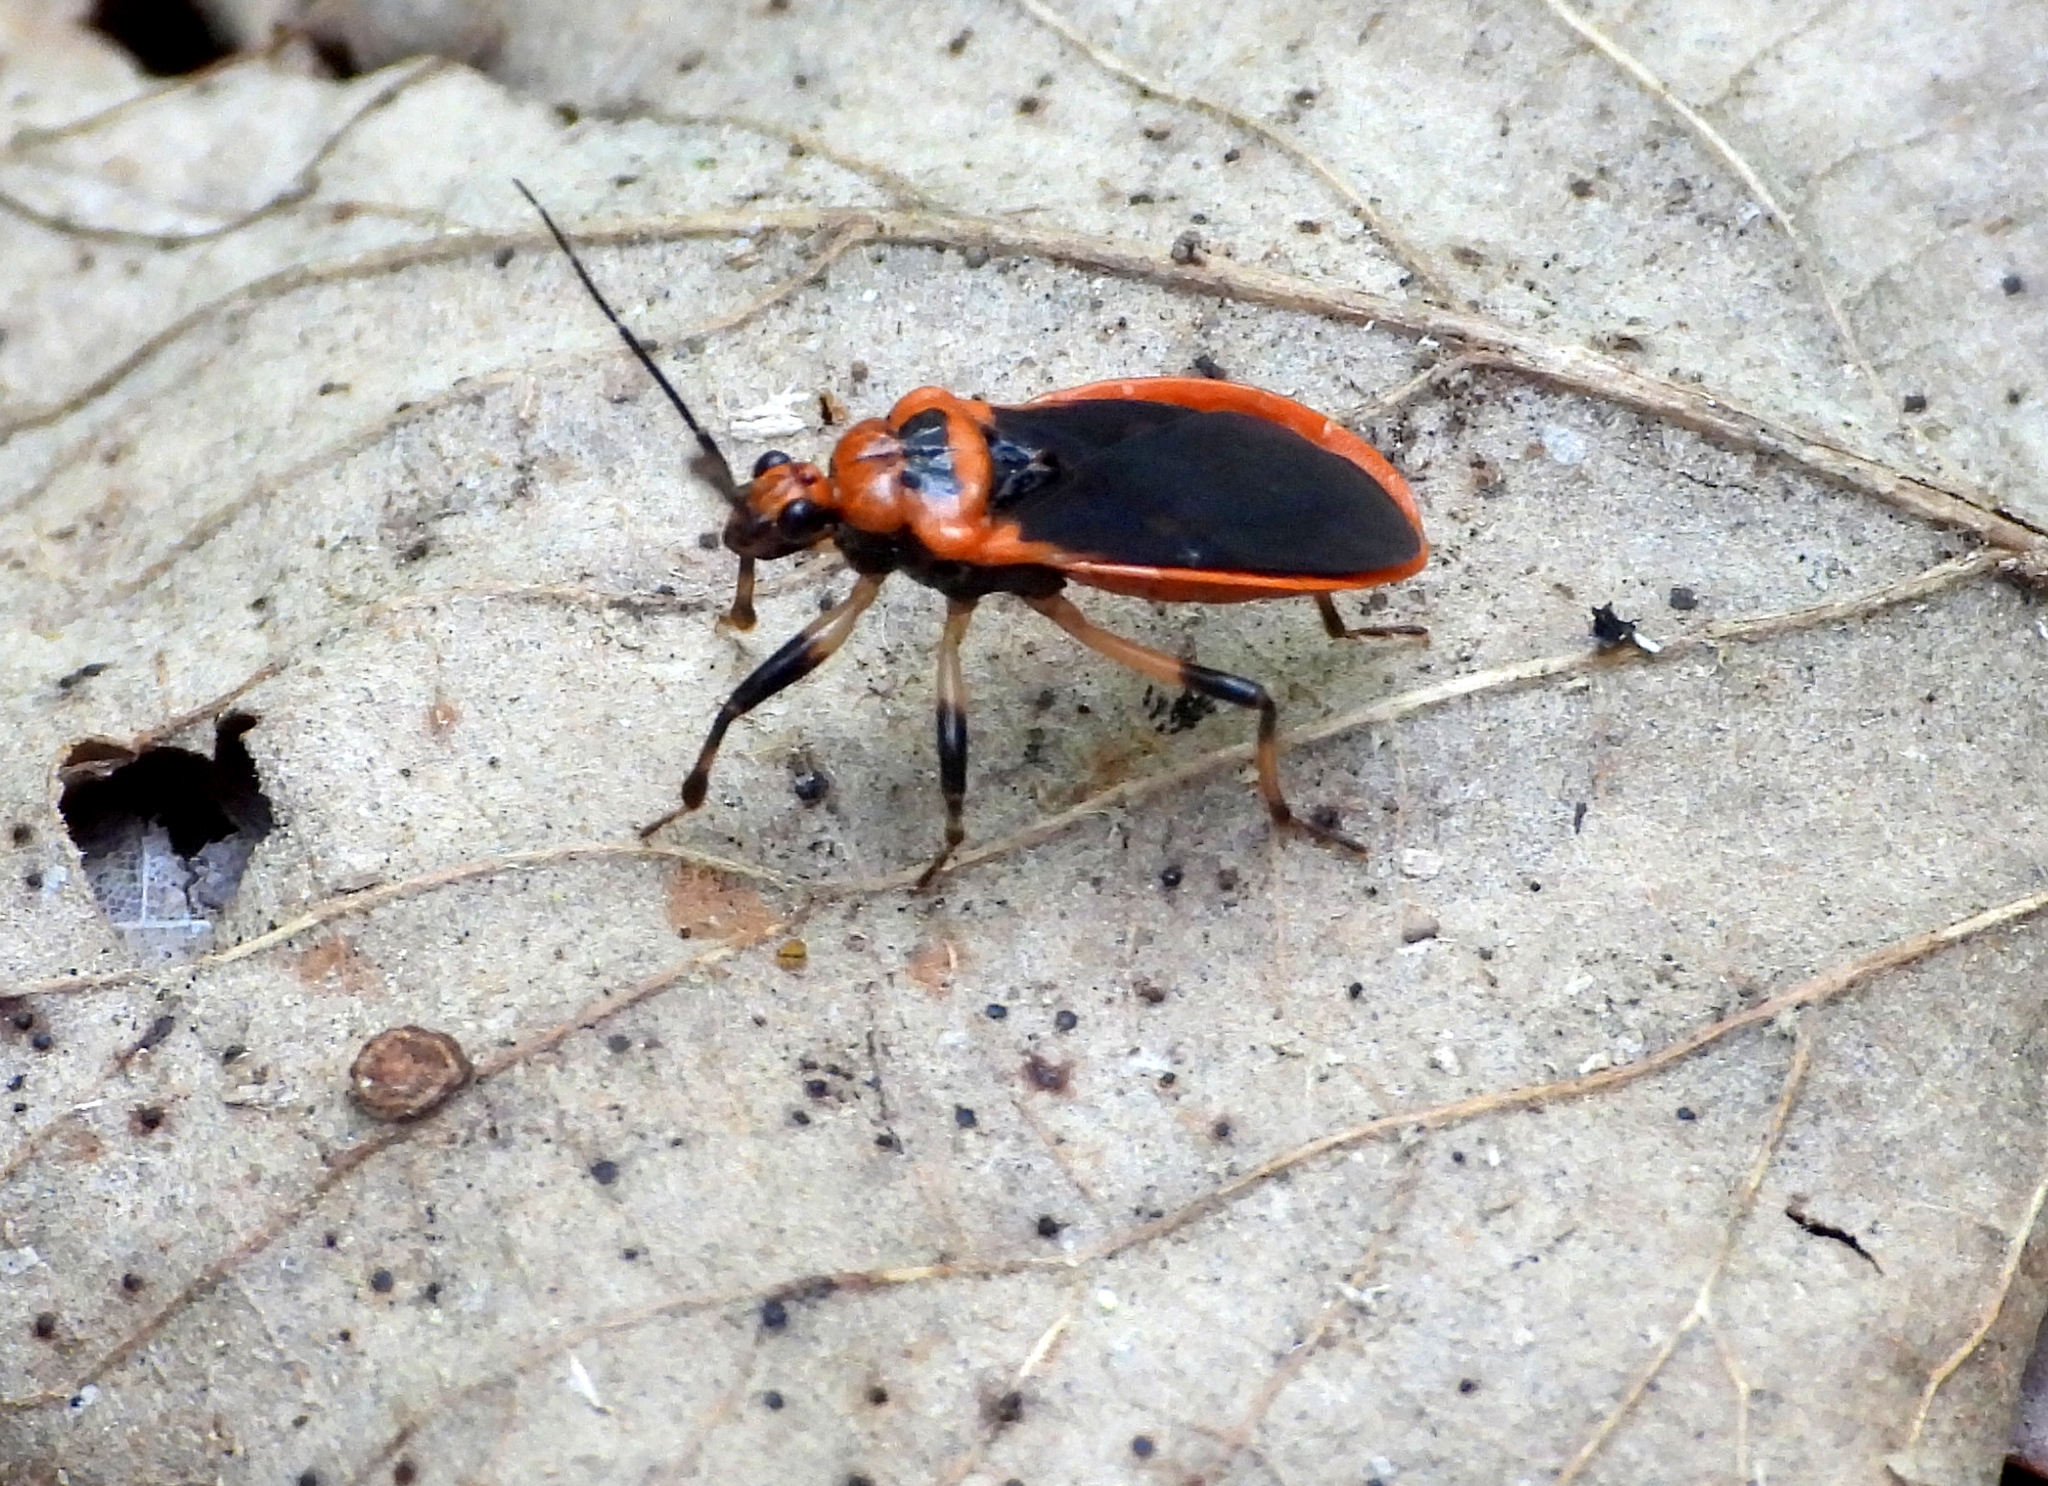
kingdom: Animalia
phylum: Arthropoda
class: Insecta
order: Hemiptera
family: Reduviidae
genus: Rhiginia
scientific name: Rhiginia cruciata
